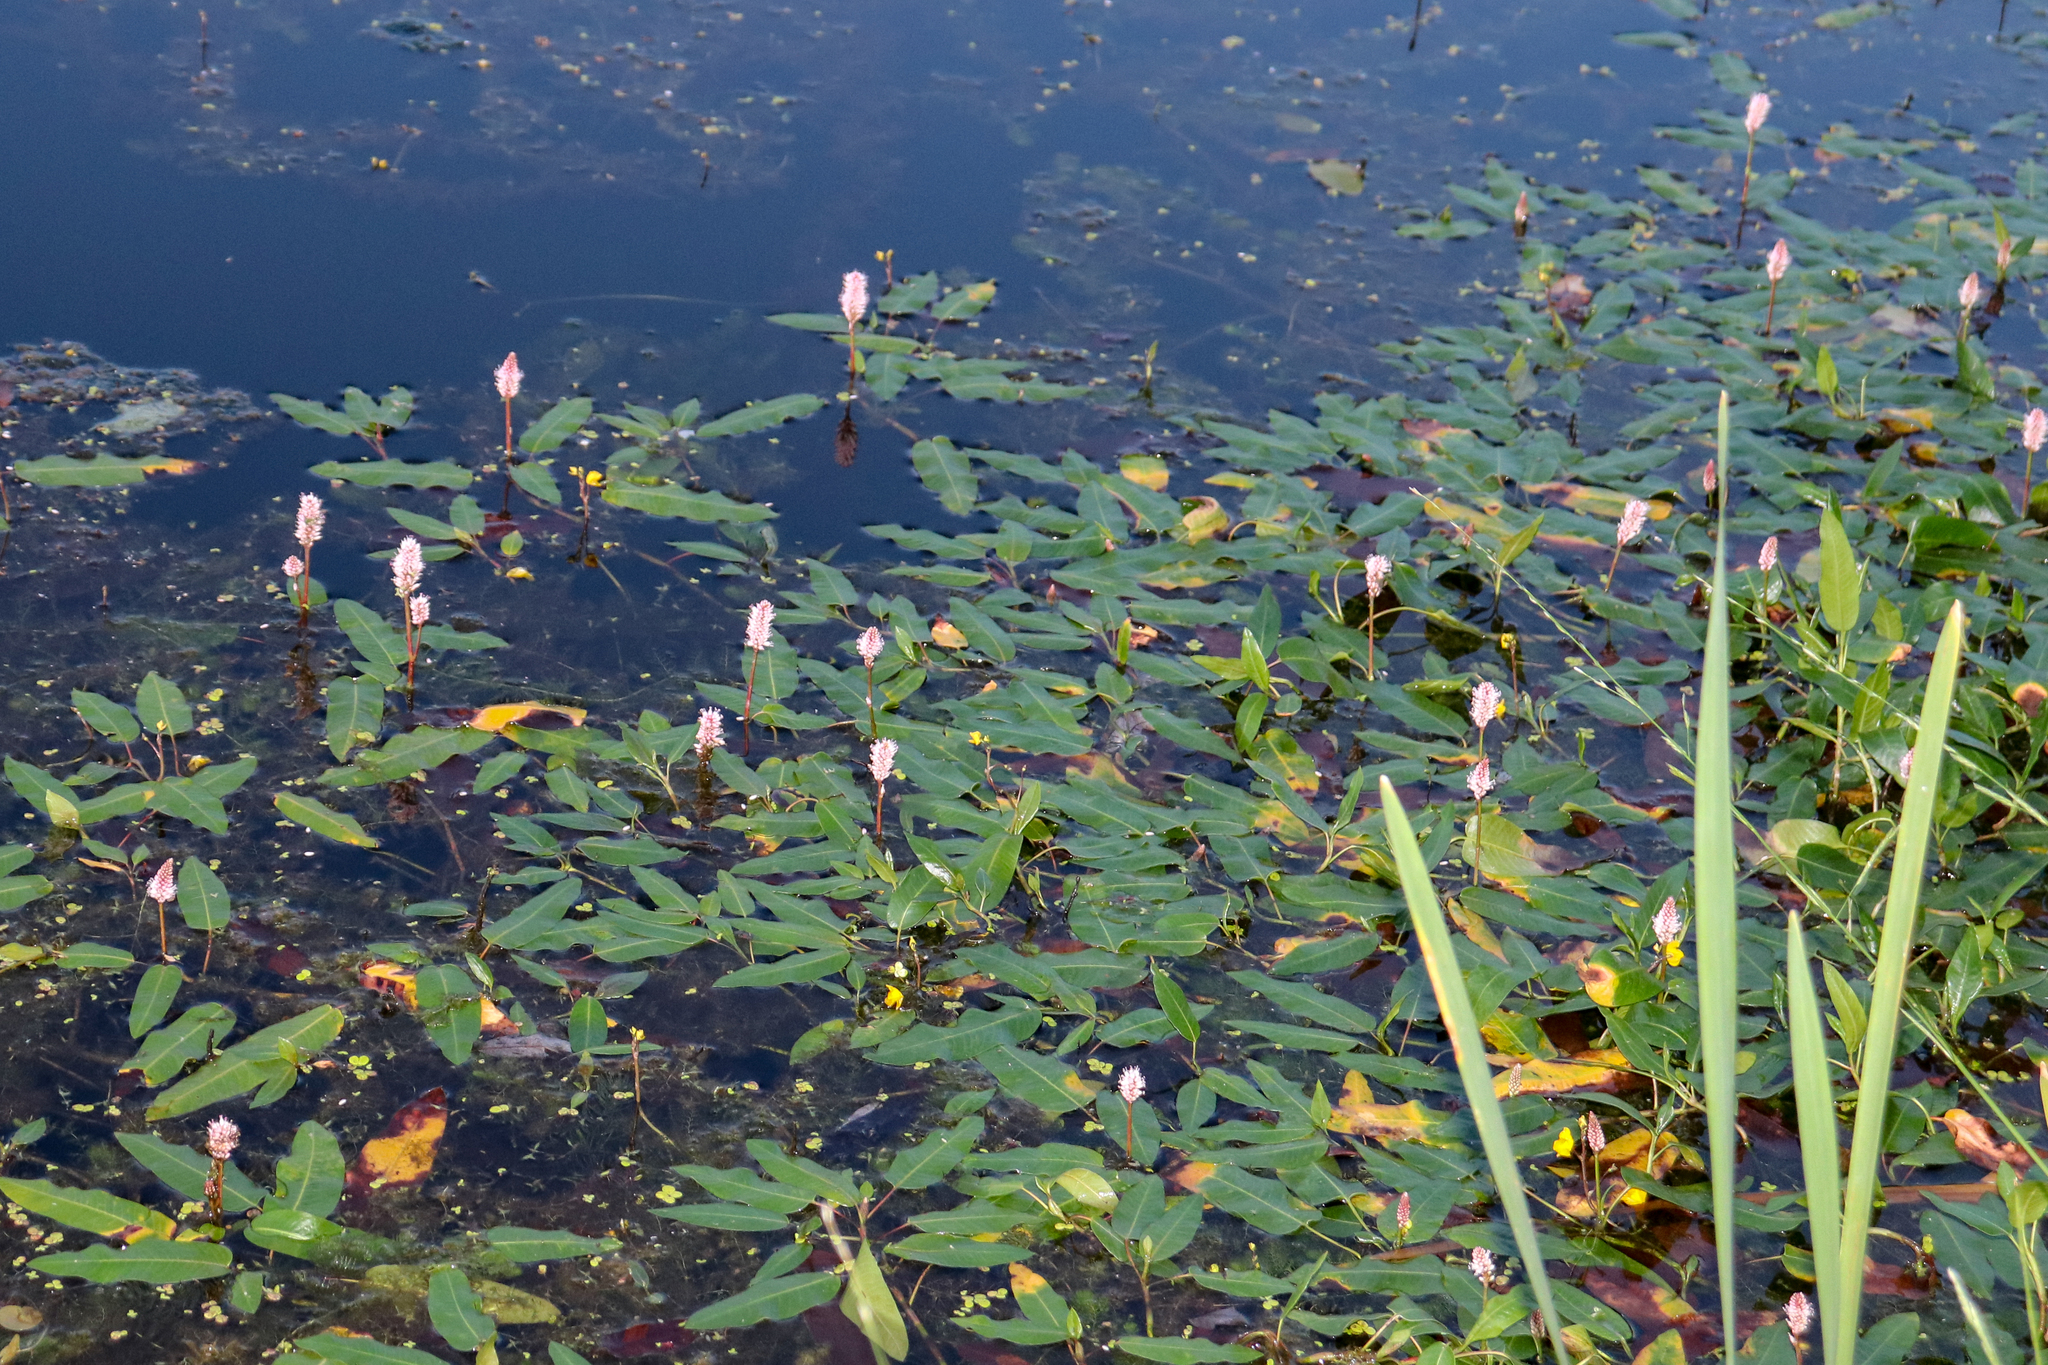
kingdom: Plantae
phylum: Tracheophyta
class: Magnoliopsida
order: Caryophyllales
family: Polygonaceae
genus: Persicaria
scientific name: Persicaria amphibia
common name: Amphibious bistort
